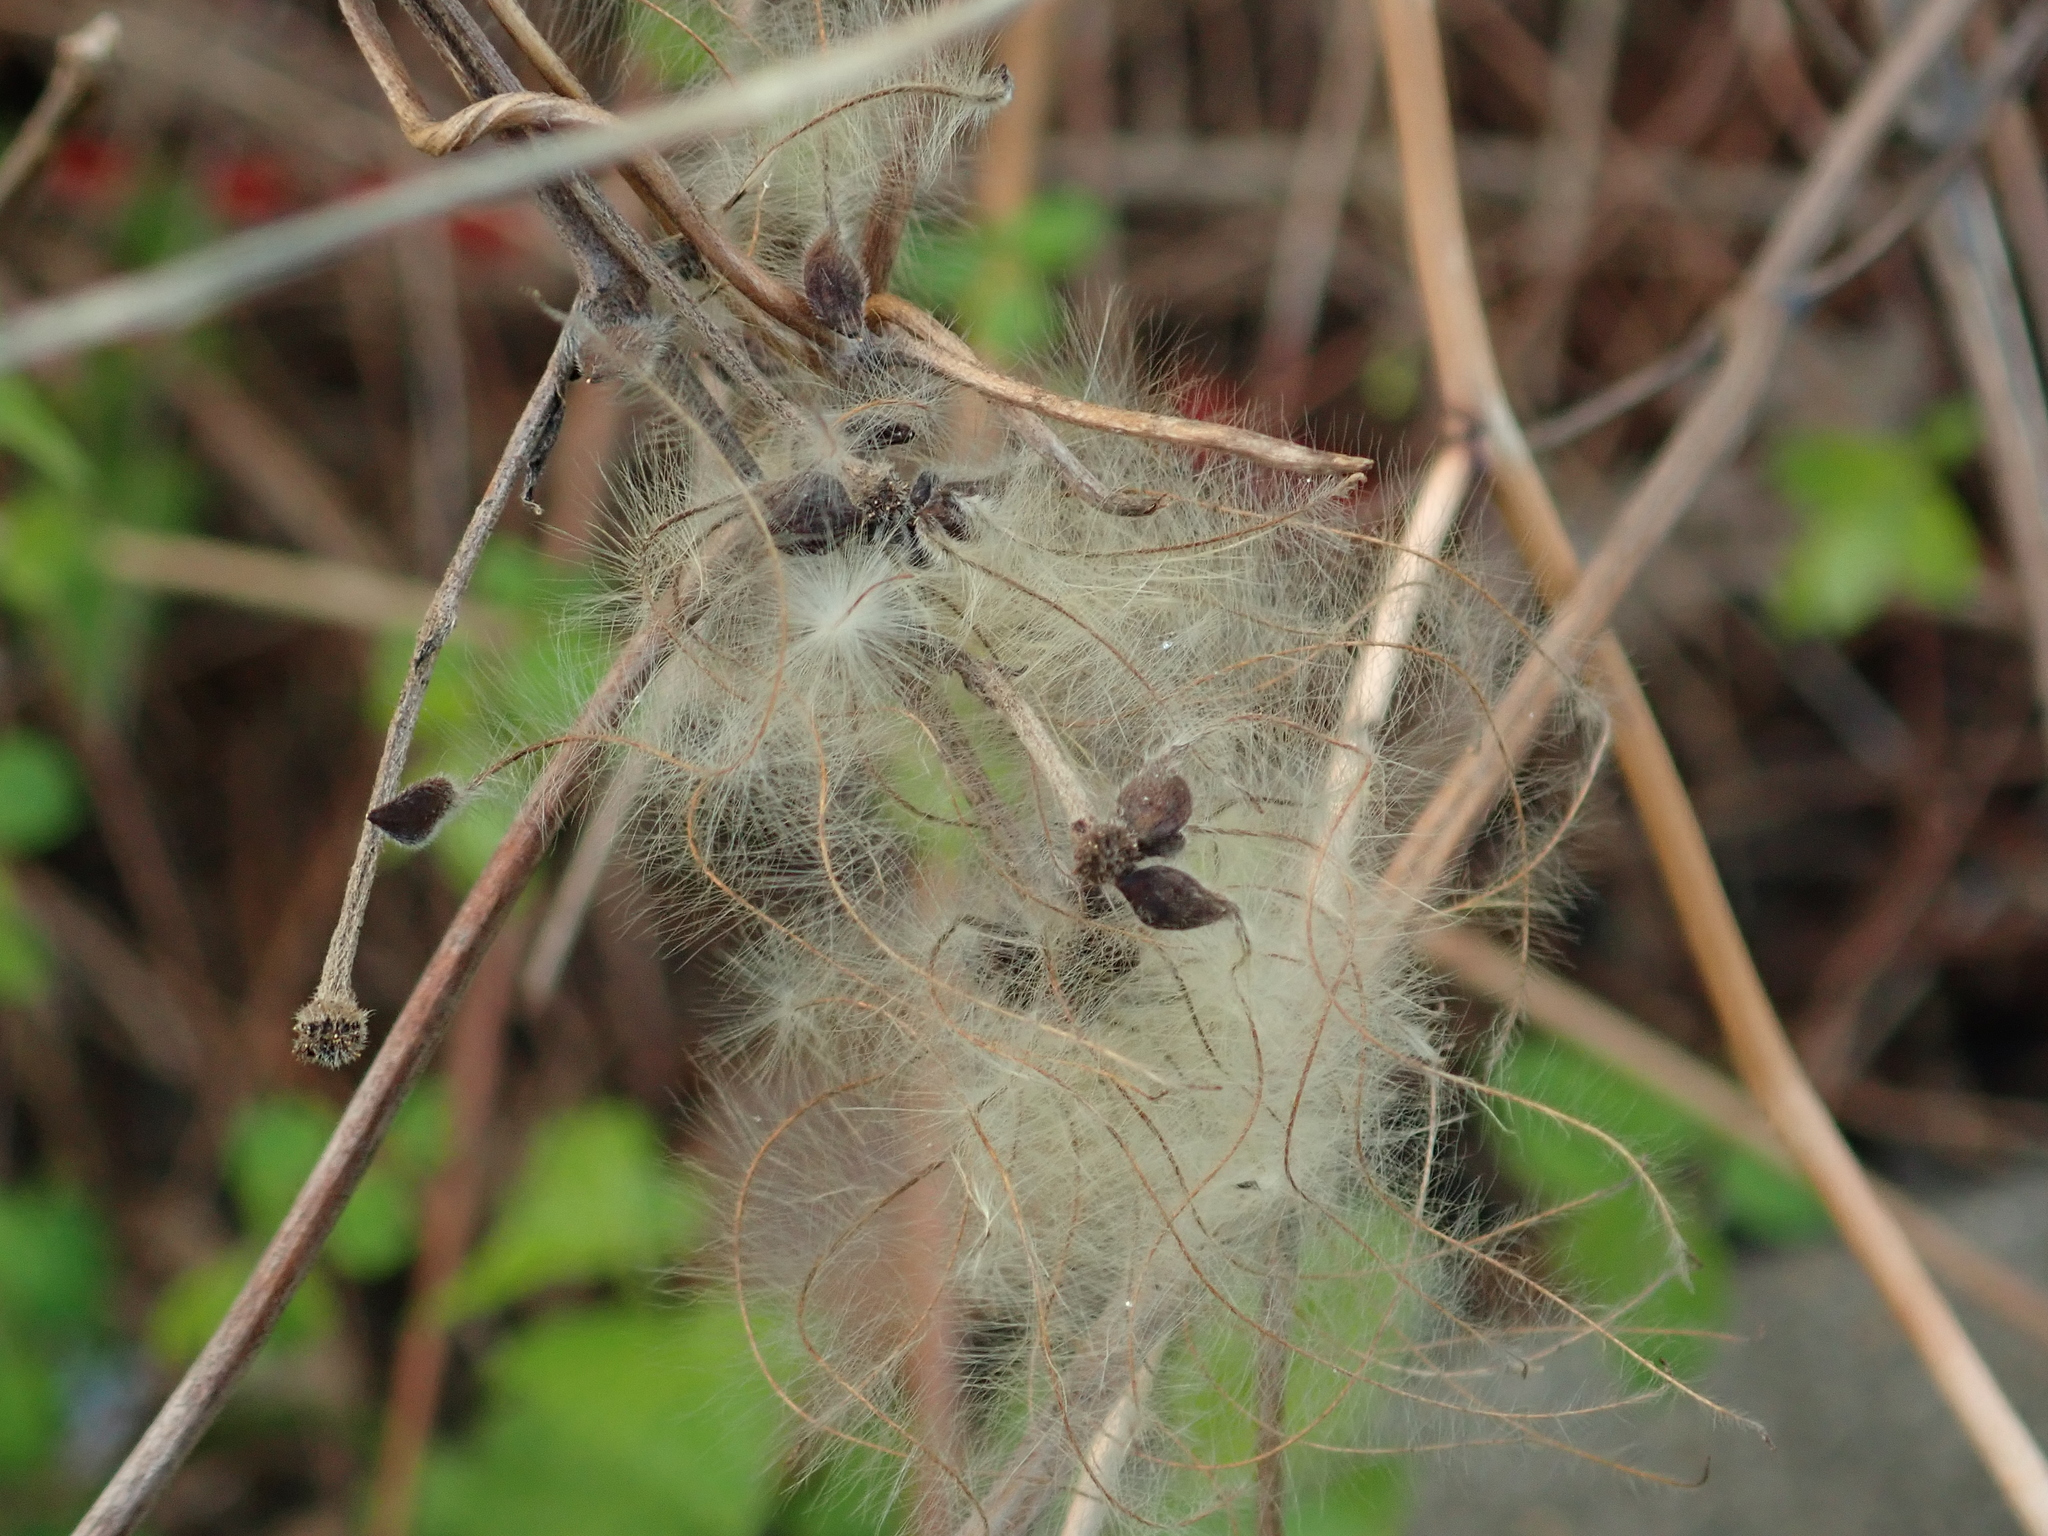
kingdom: Plantae
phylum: Tracheophyta
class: Magnoliopsida
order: Ranunculales
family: Ranunculaceae
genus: Clematis
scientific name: Clematis vitalba
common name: Evergreen clematis
